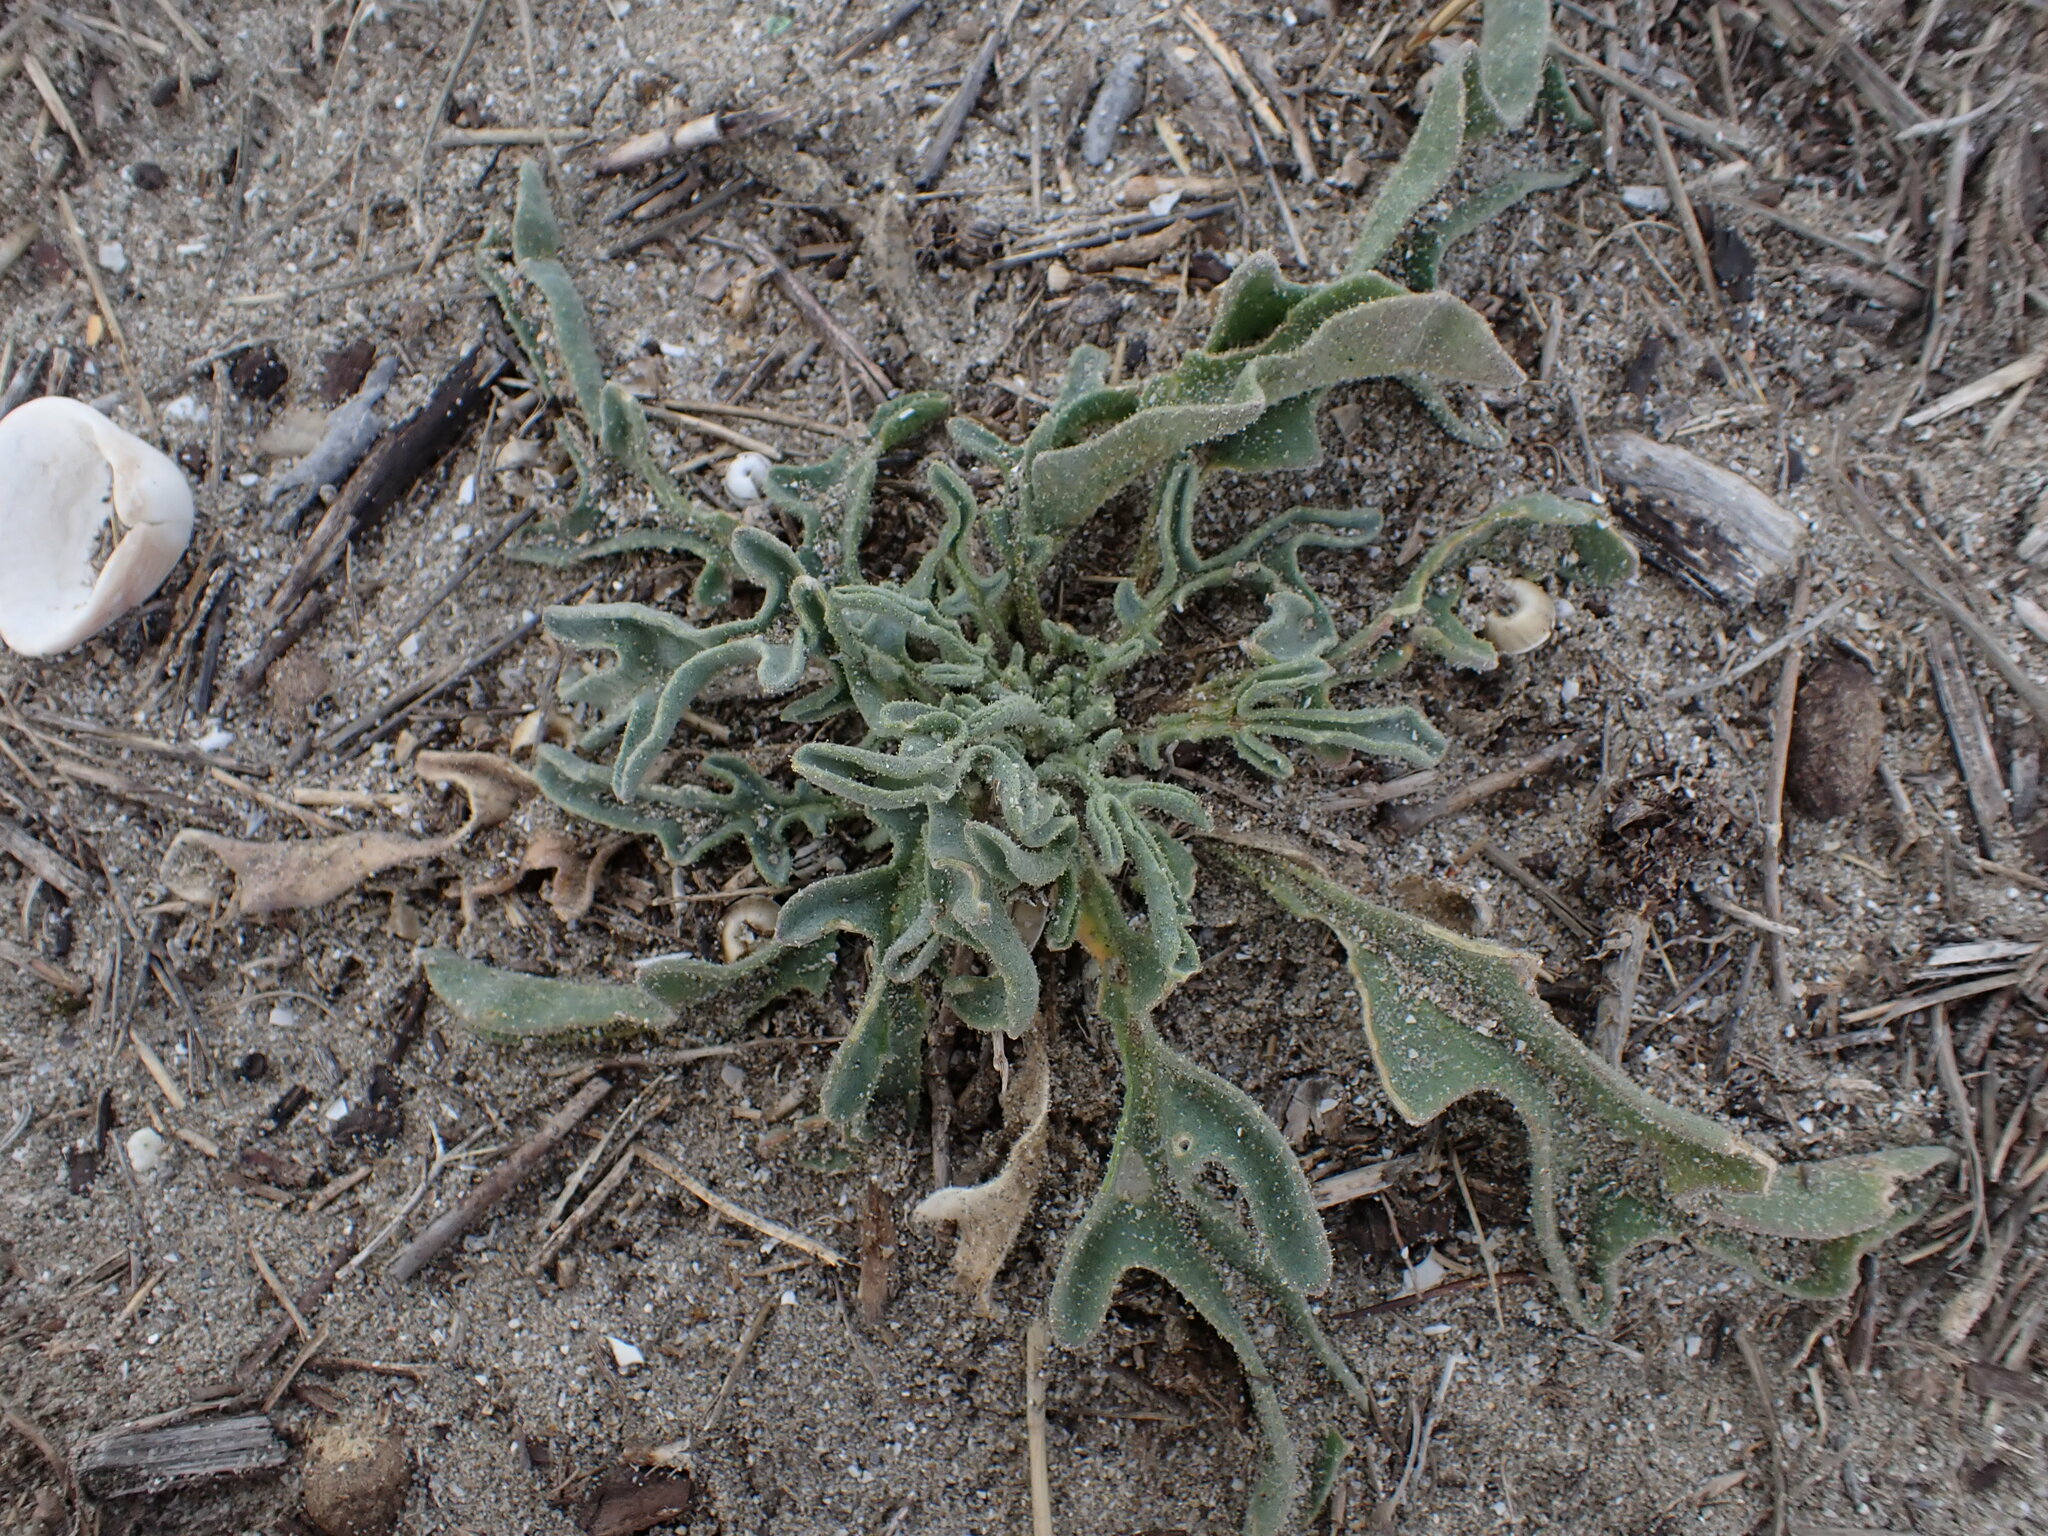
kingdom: Plantae
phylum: Tracheophyta
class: Magnoliopsida
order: Brassicales
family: Brassicaceae
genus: Matthiola
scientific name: Matthiola sinuata
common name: Sea stock
